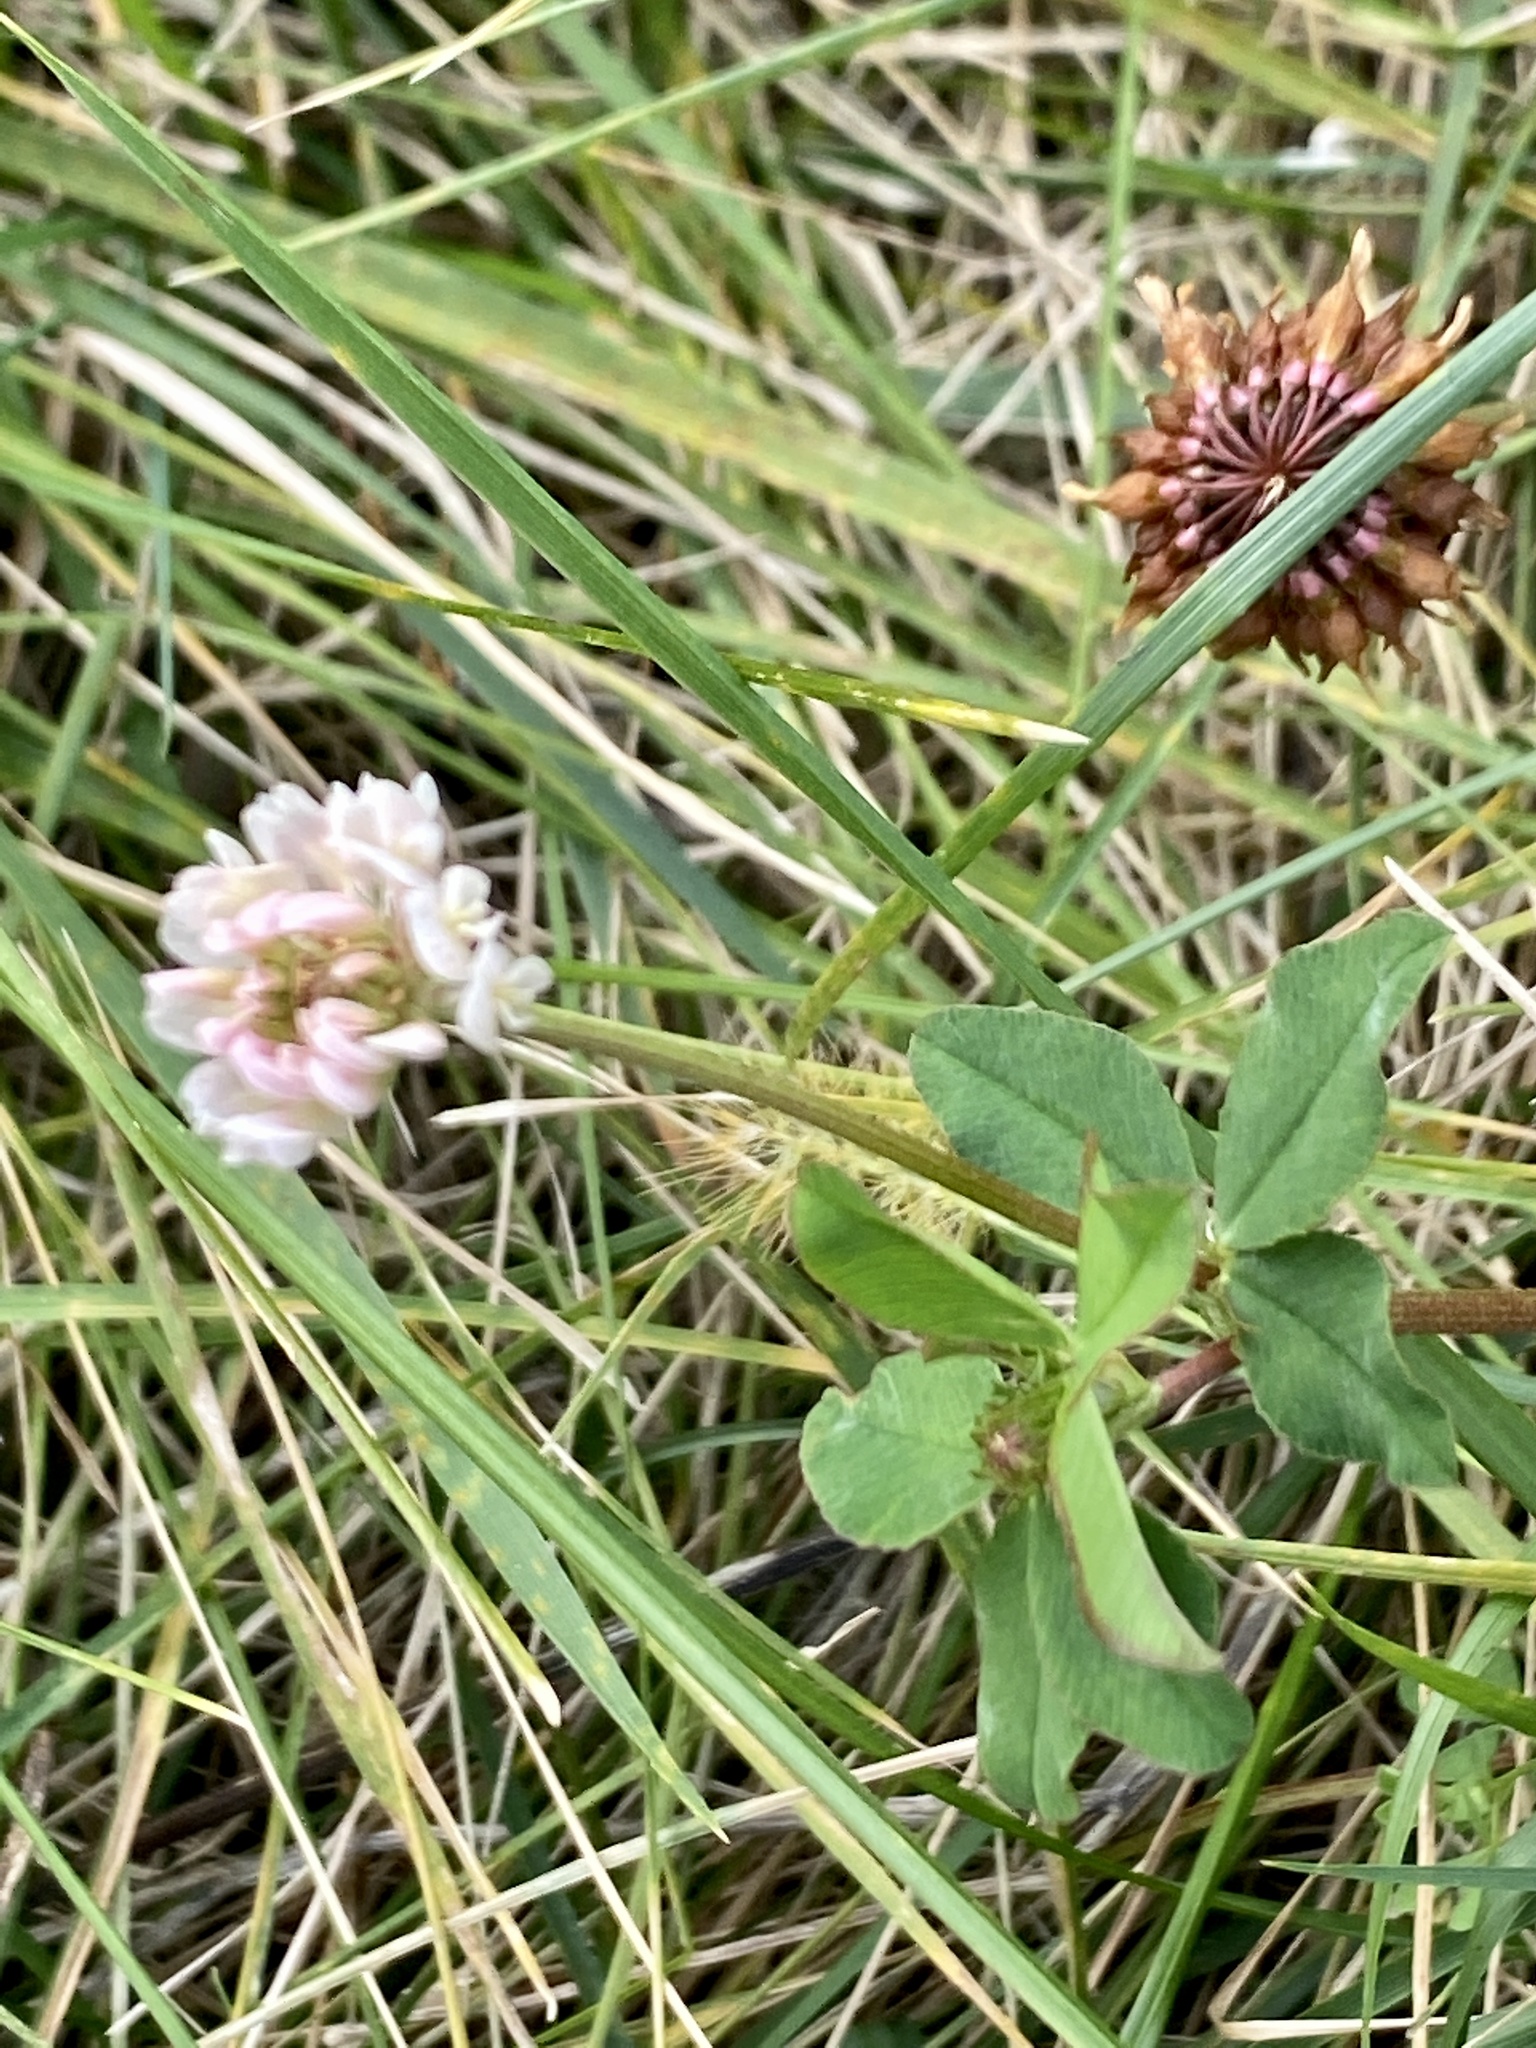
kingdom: Plantae
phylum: Tracheophyta
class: Magnoliopsida
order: Fabales
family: Fabaceae
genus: Trifolium
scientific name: Trifolium hybridum
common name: Alsike clover
